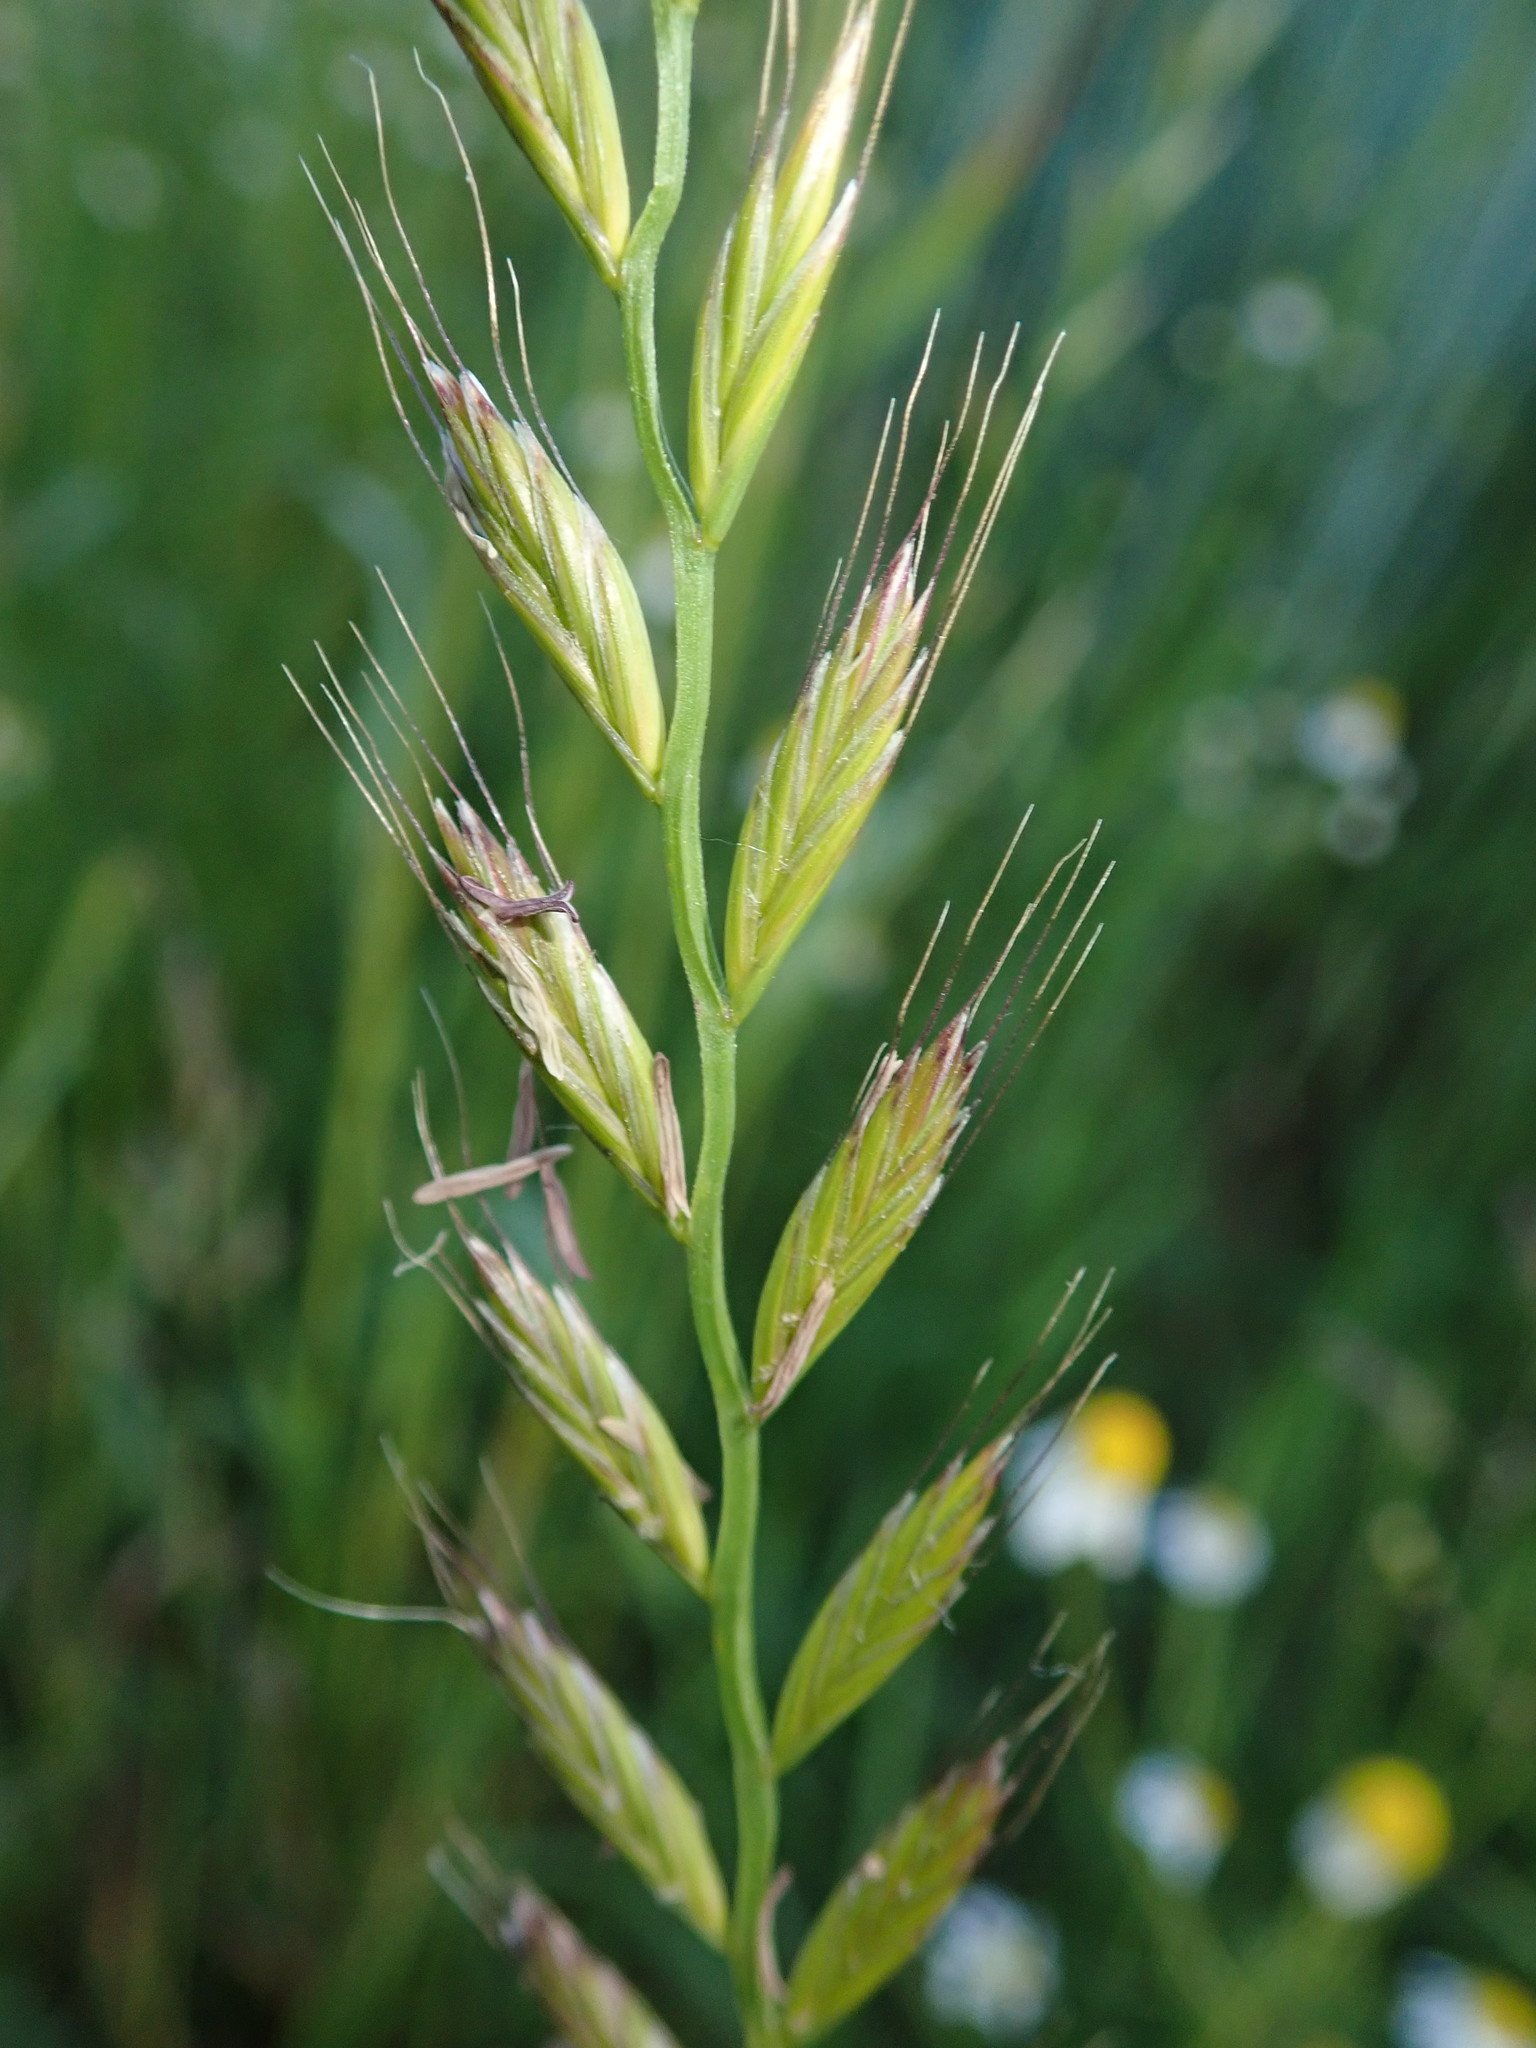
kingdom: Plantae
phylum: Tracheophyta
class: Liliopsida
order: Poales
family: Poaceae
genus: Lolium
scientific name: Lolium multiflorum
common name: Annual ryegrass
